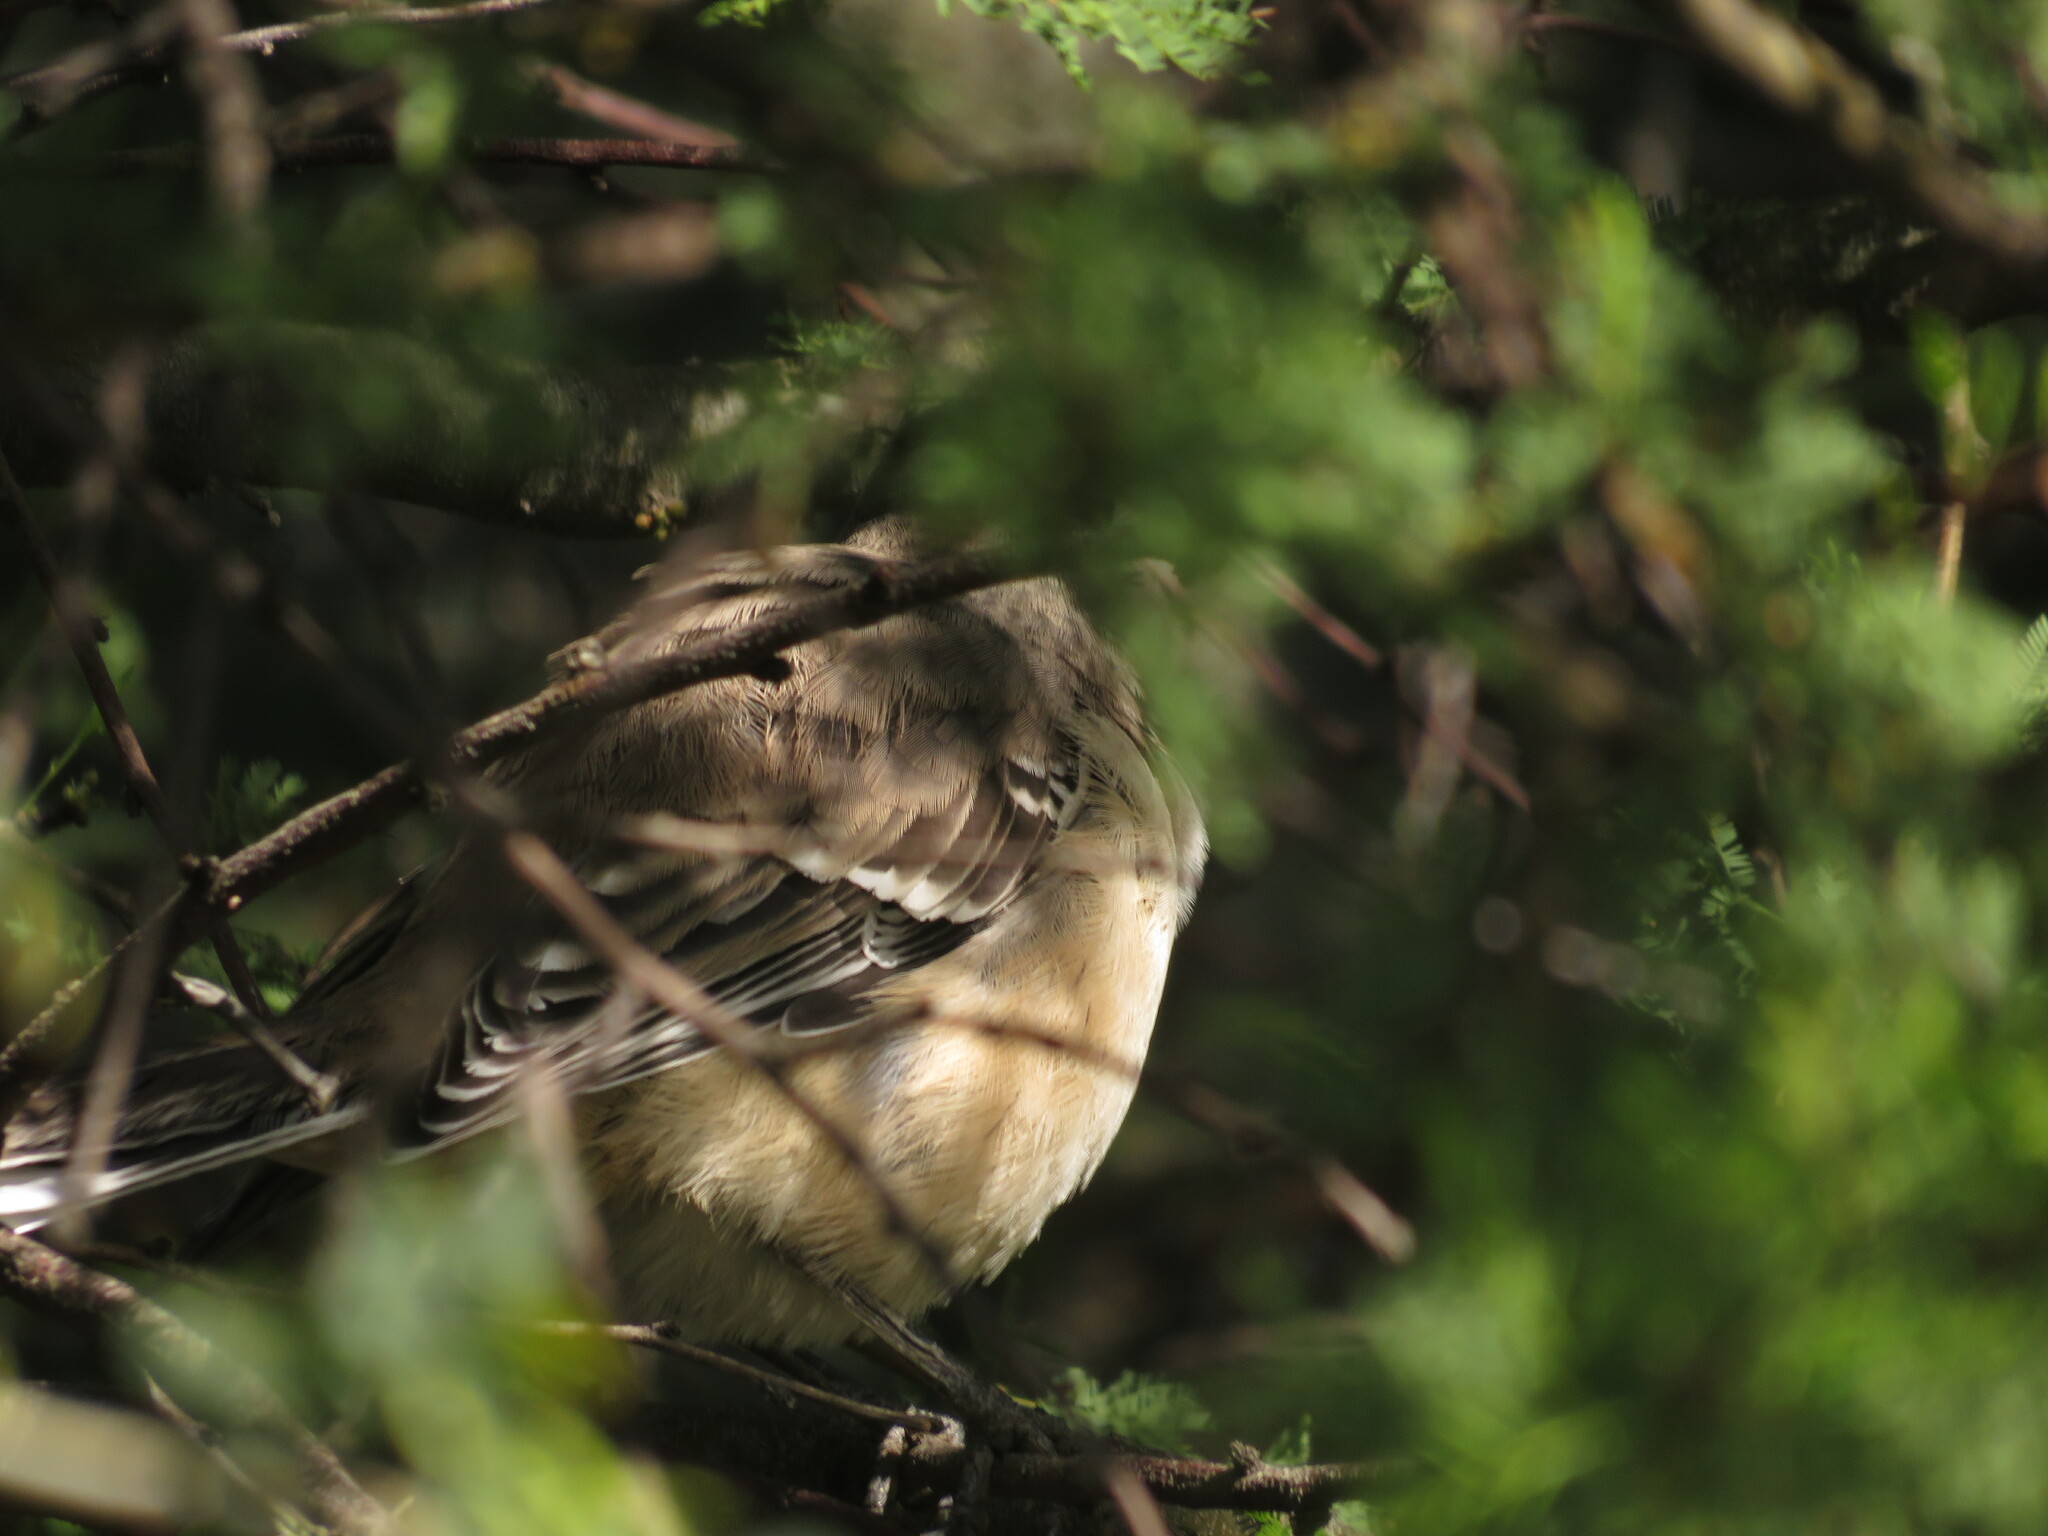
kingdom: Animalia
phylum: Chordata
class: Aves
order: Passeriformes
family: Mimidae
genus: Mimus
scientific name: Mimus saturninus
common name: Chalk-browed mockingbird
